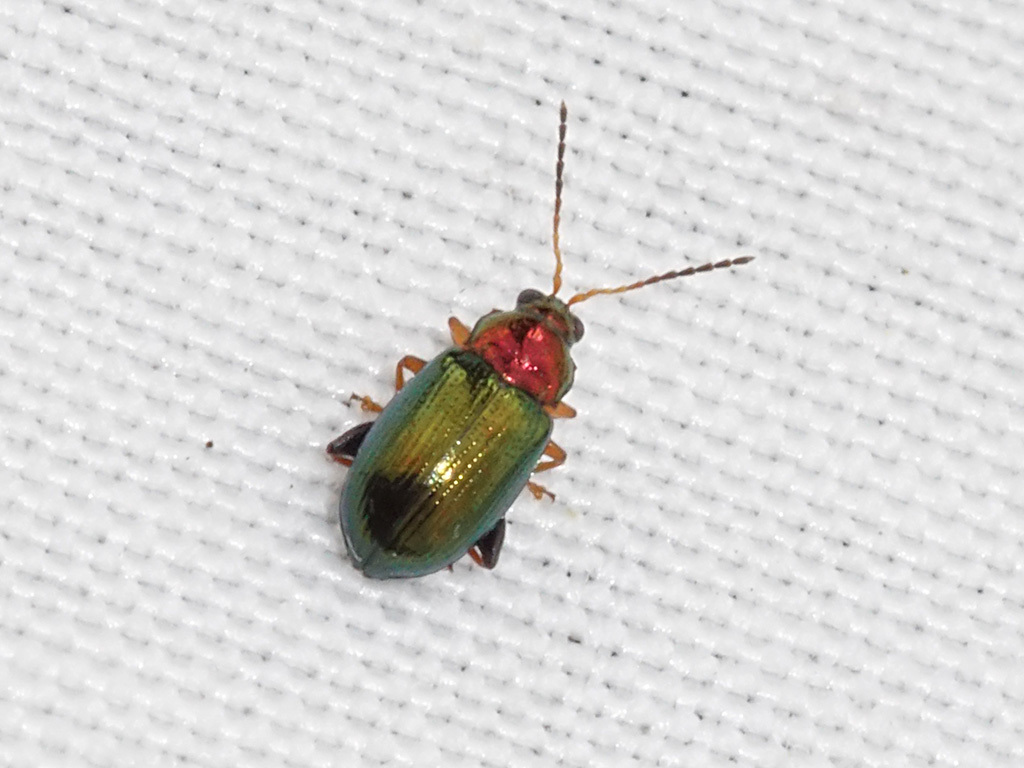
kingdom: Animalia
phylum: Arthropoda
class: Insecta
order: Coleoptera
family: Chrysomelidae
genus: Crepidodera
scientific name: Crepidodera aurata
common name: Willow flea beetle
